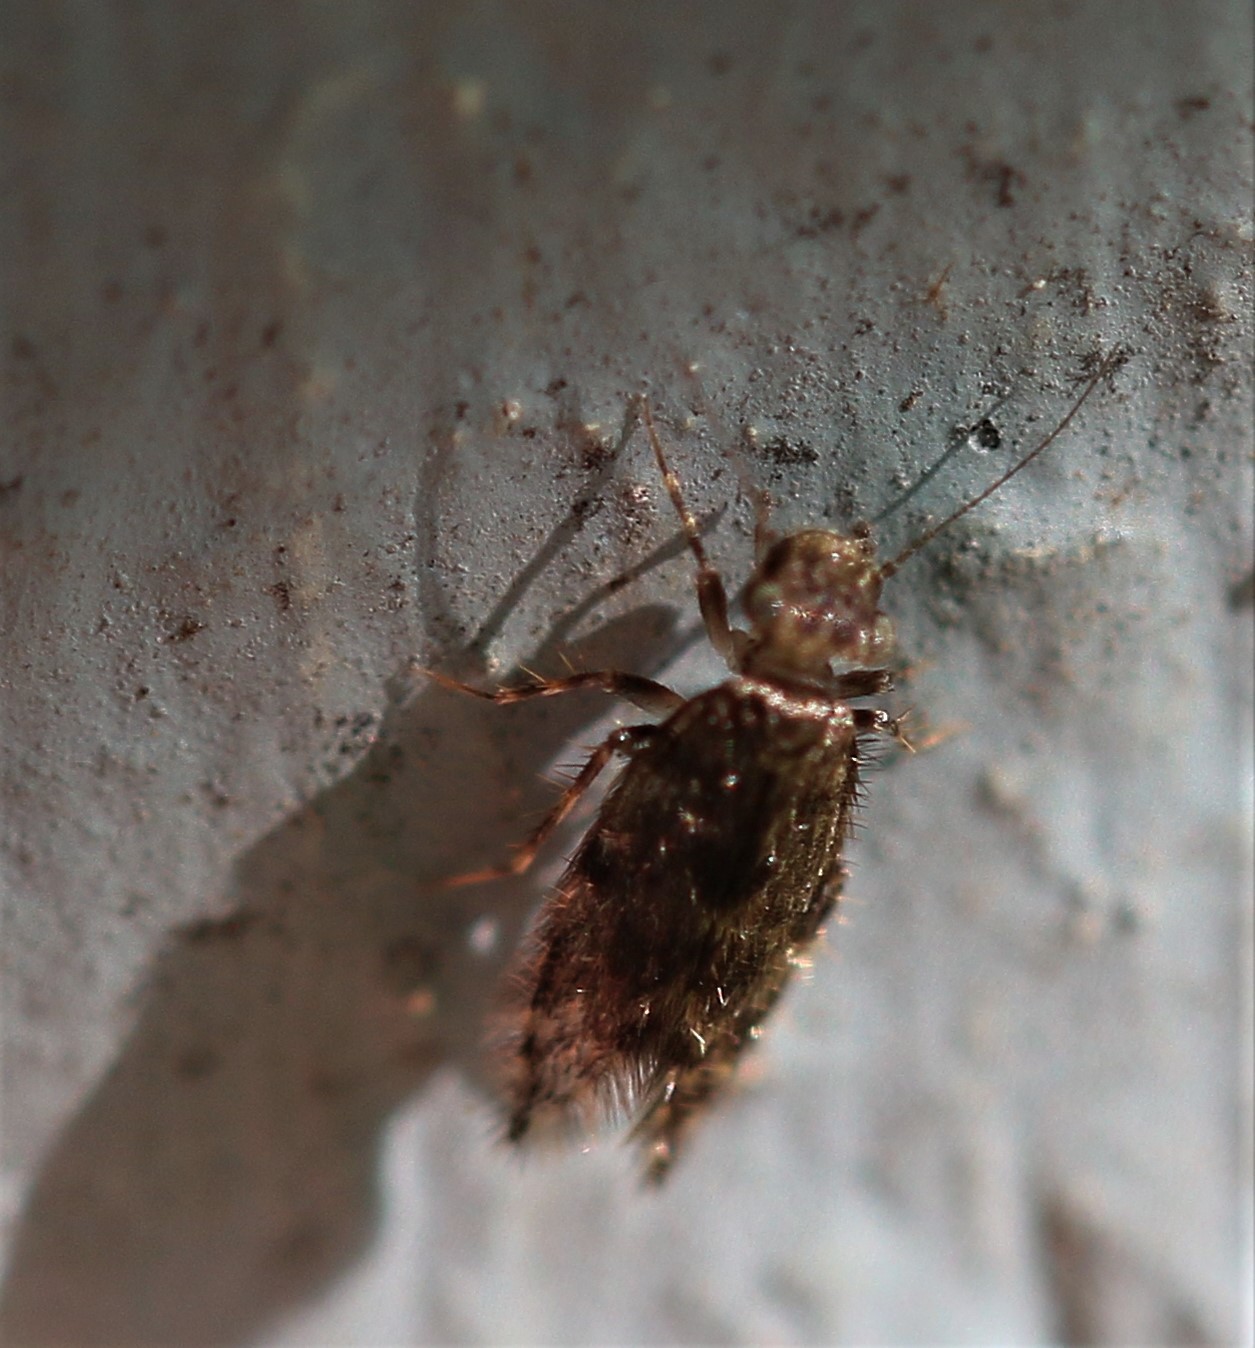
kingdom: Animalia
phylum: Arthropoda
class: Insecta
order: Psocodea
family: Lepidopsocidae
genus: Echmepteryx
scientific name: Echmepteryx hageni
